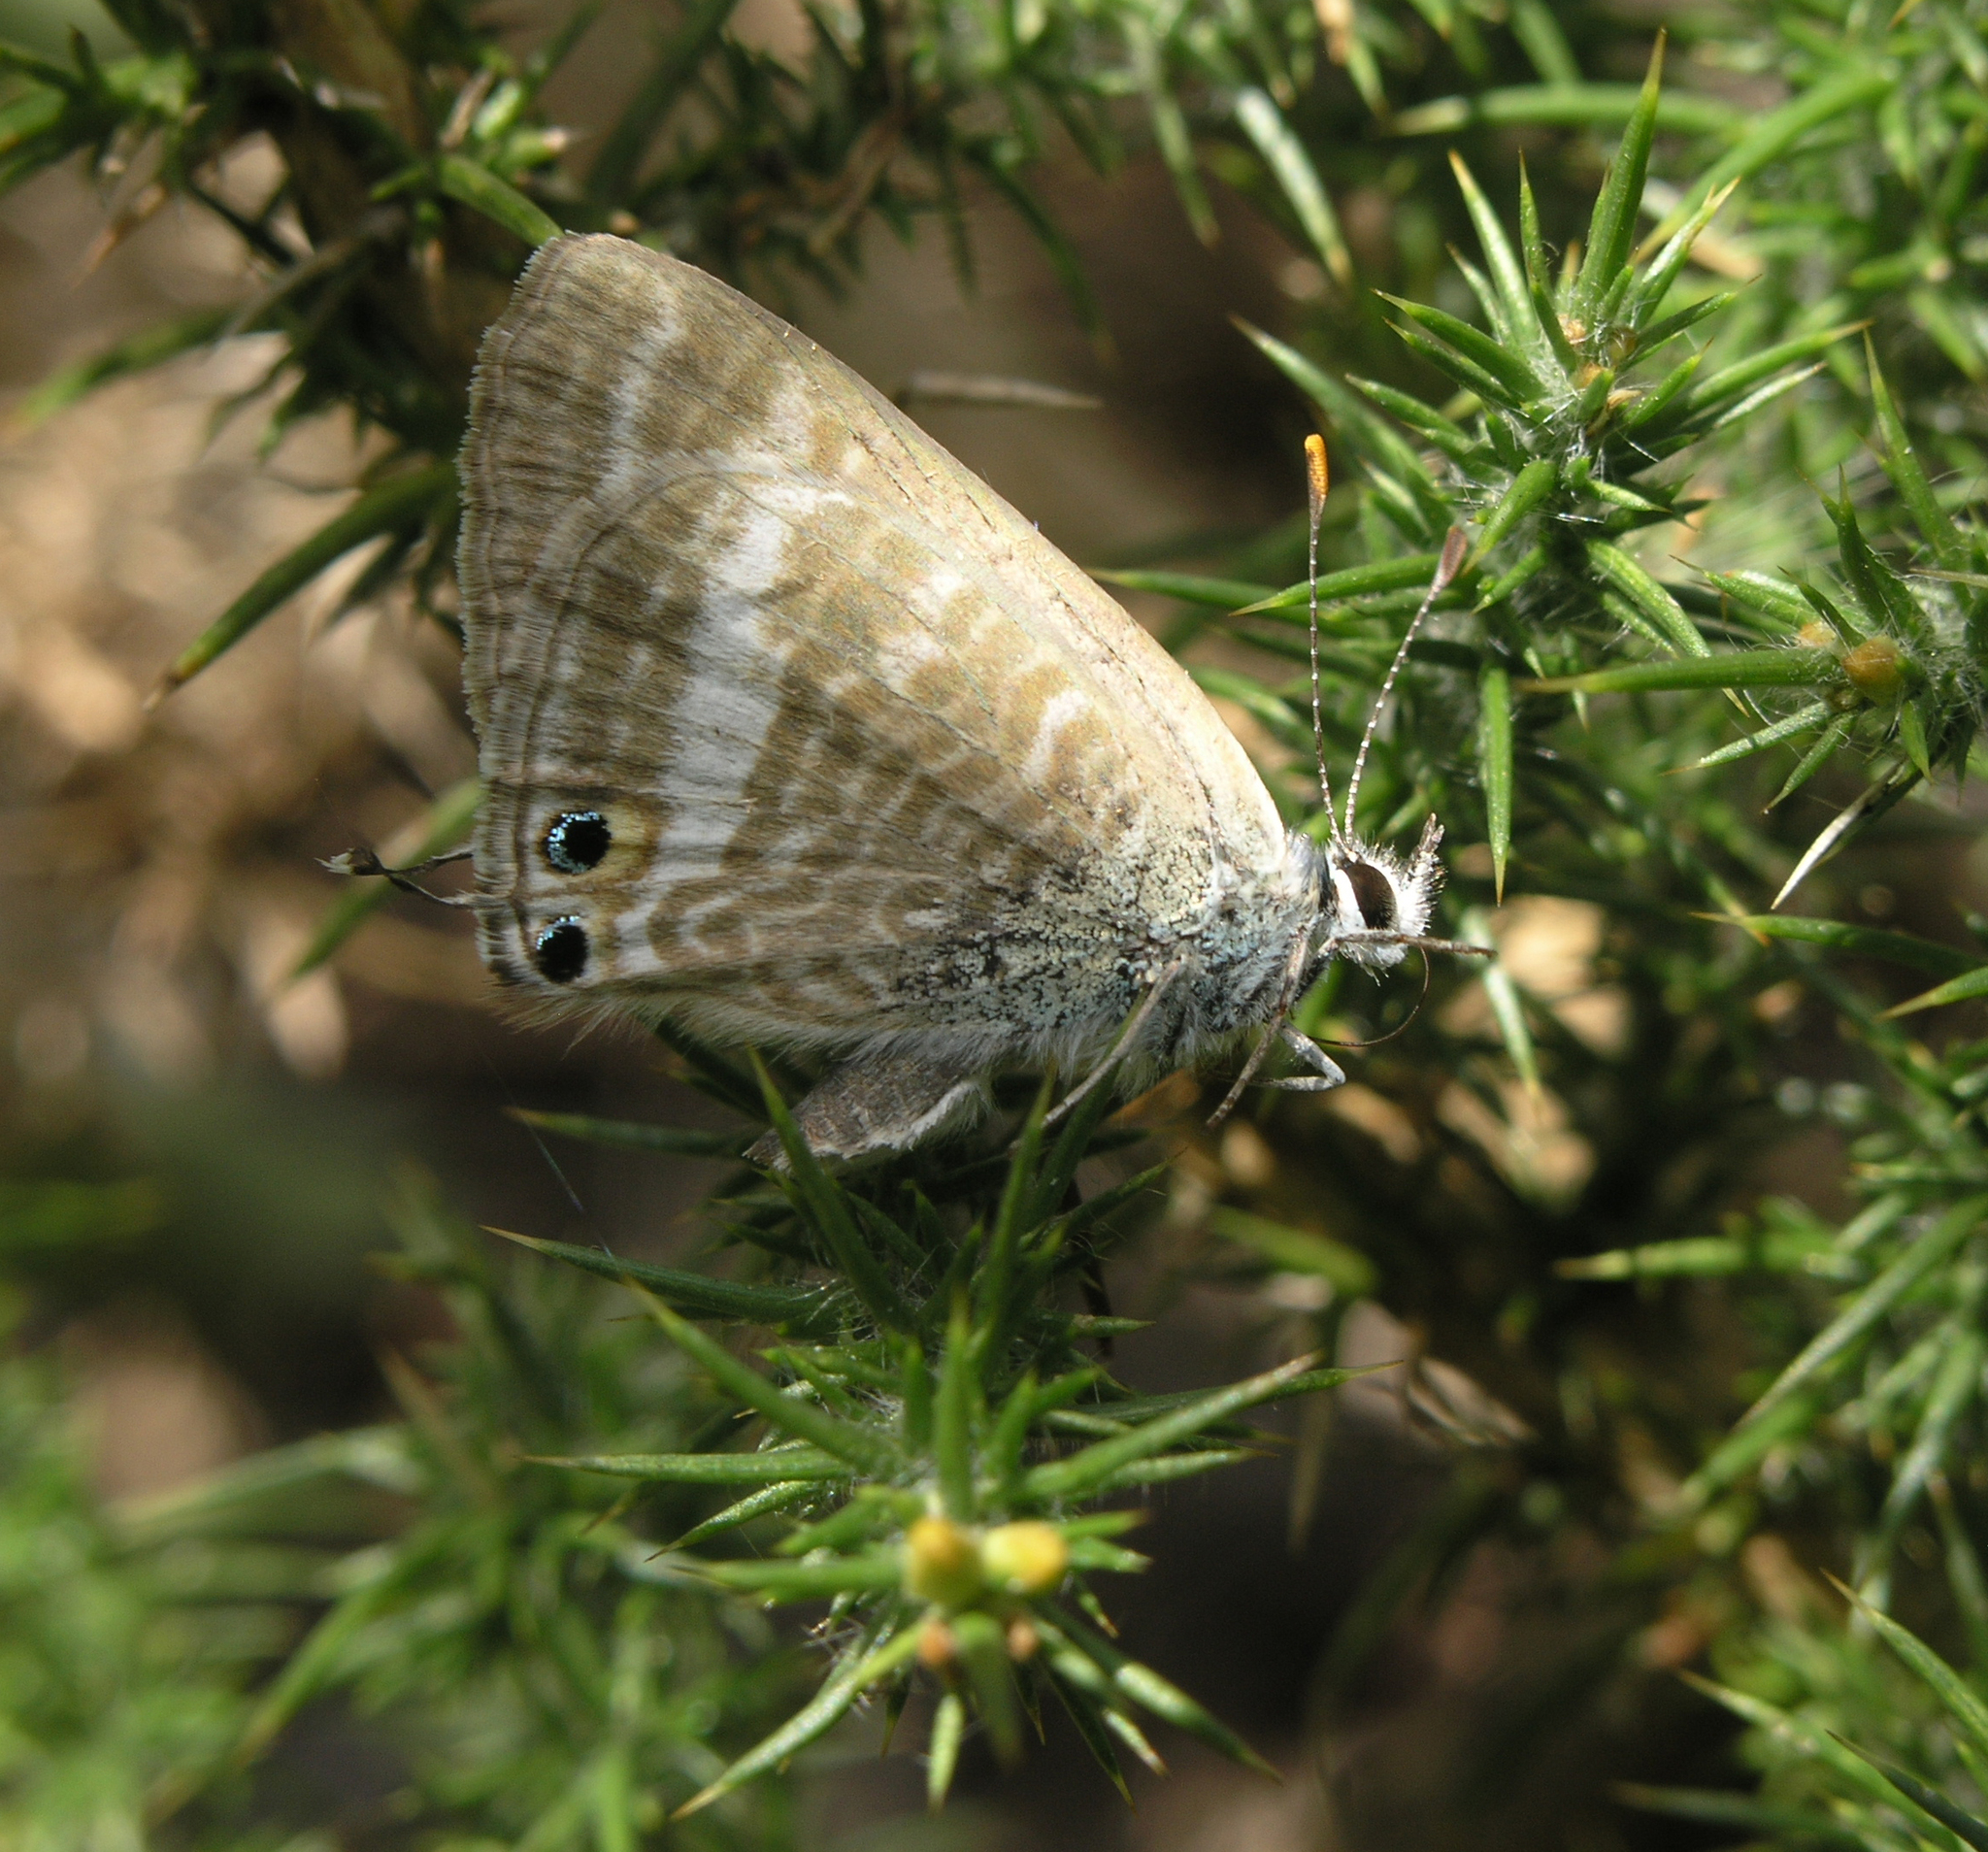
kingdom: Animalia
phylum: Arthropoda
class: Insecta
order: Lepidoptera
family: Lycaenidae
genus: Lampides
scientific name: Lampides boeticus
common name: Long-tailed blue
